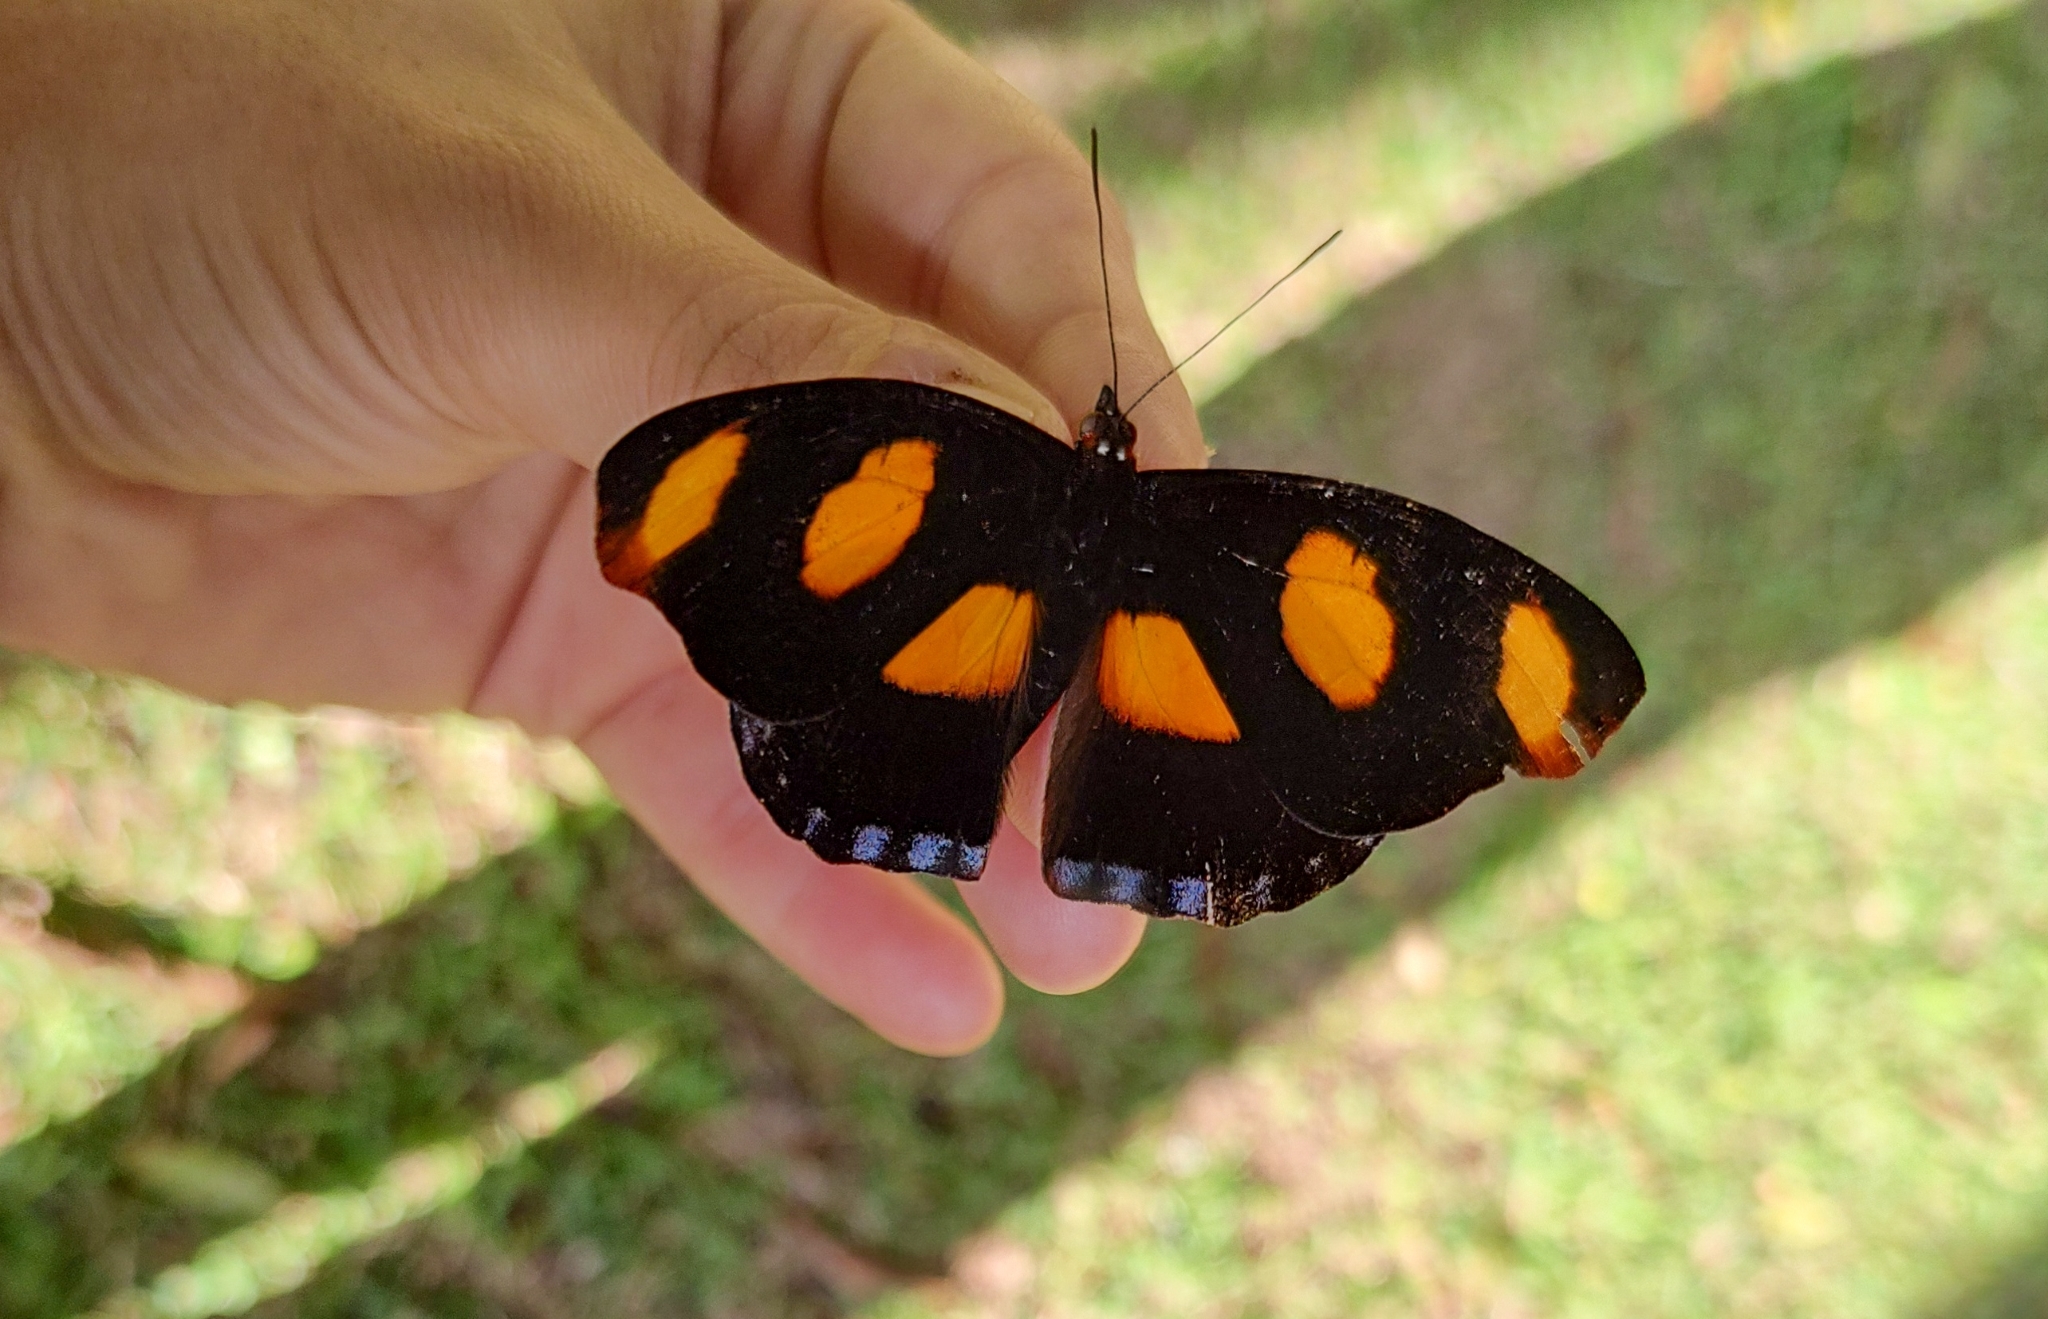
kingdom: Animalia
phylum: Arthropoda
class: Insecta
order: Lepidoptera
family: Nymphalidae
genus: Catonephele
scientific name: Catonephele numilia
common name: Blue-frosted banner
